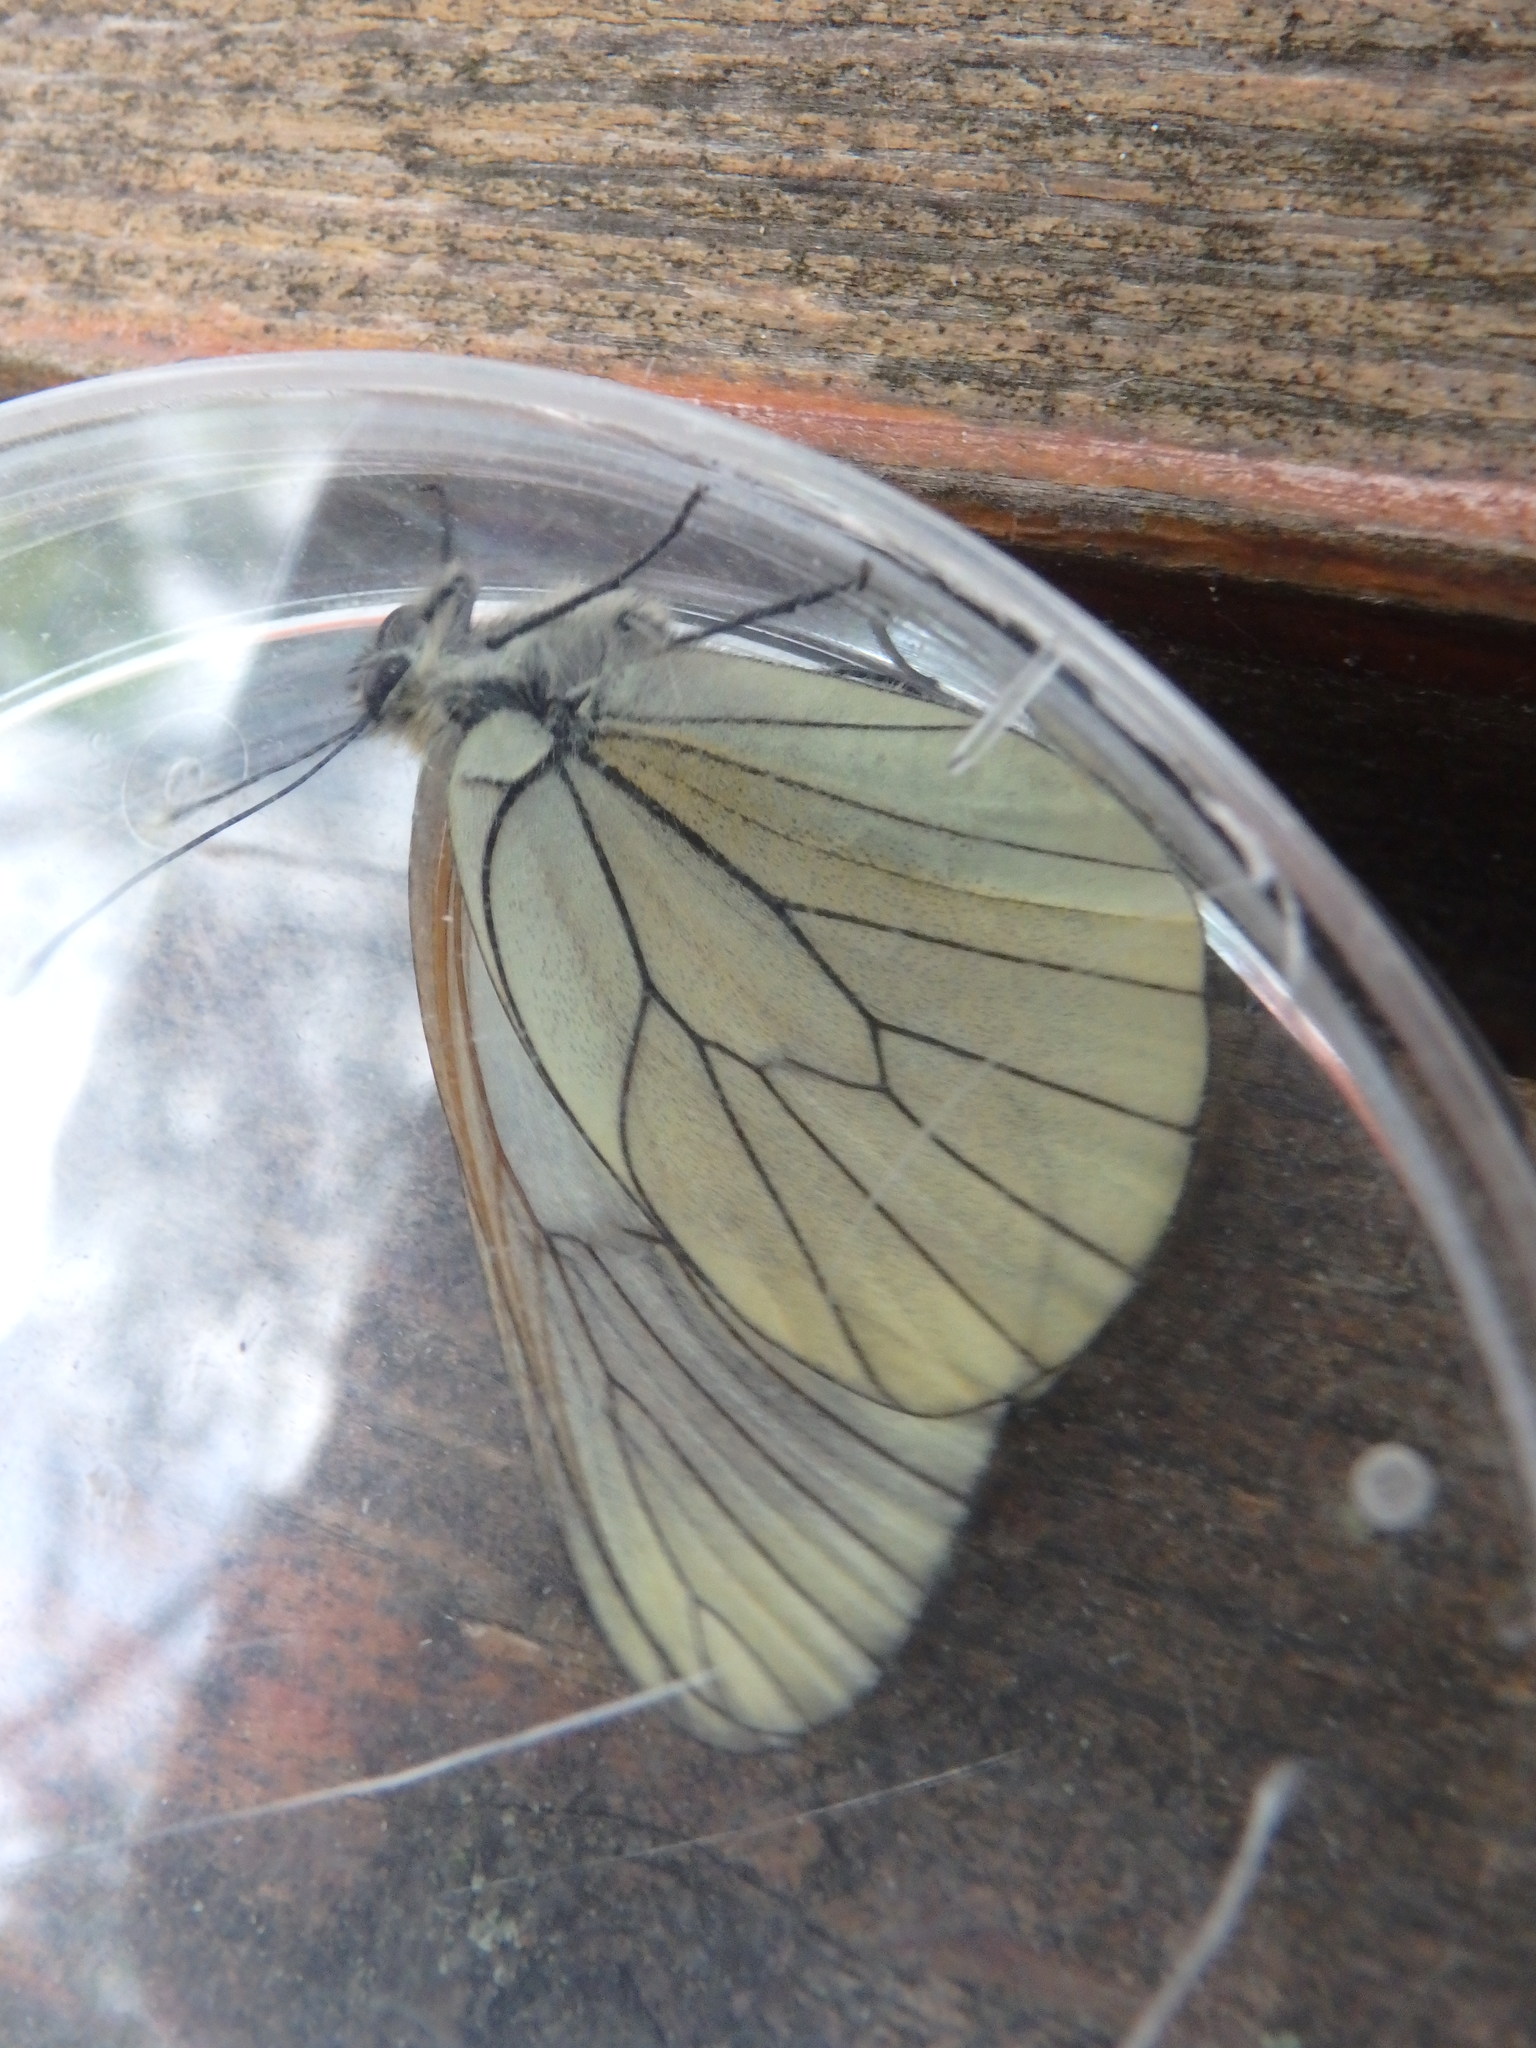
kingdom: Animalia
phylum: Arthropoda
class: Insecta
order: Lepidoptera
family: Pieridae
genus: Aporia
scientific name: Aporia crataegi
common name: Black-veined white
